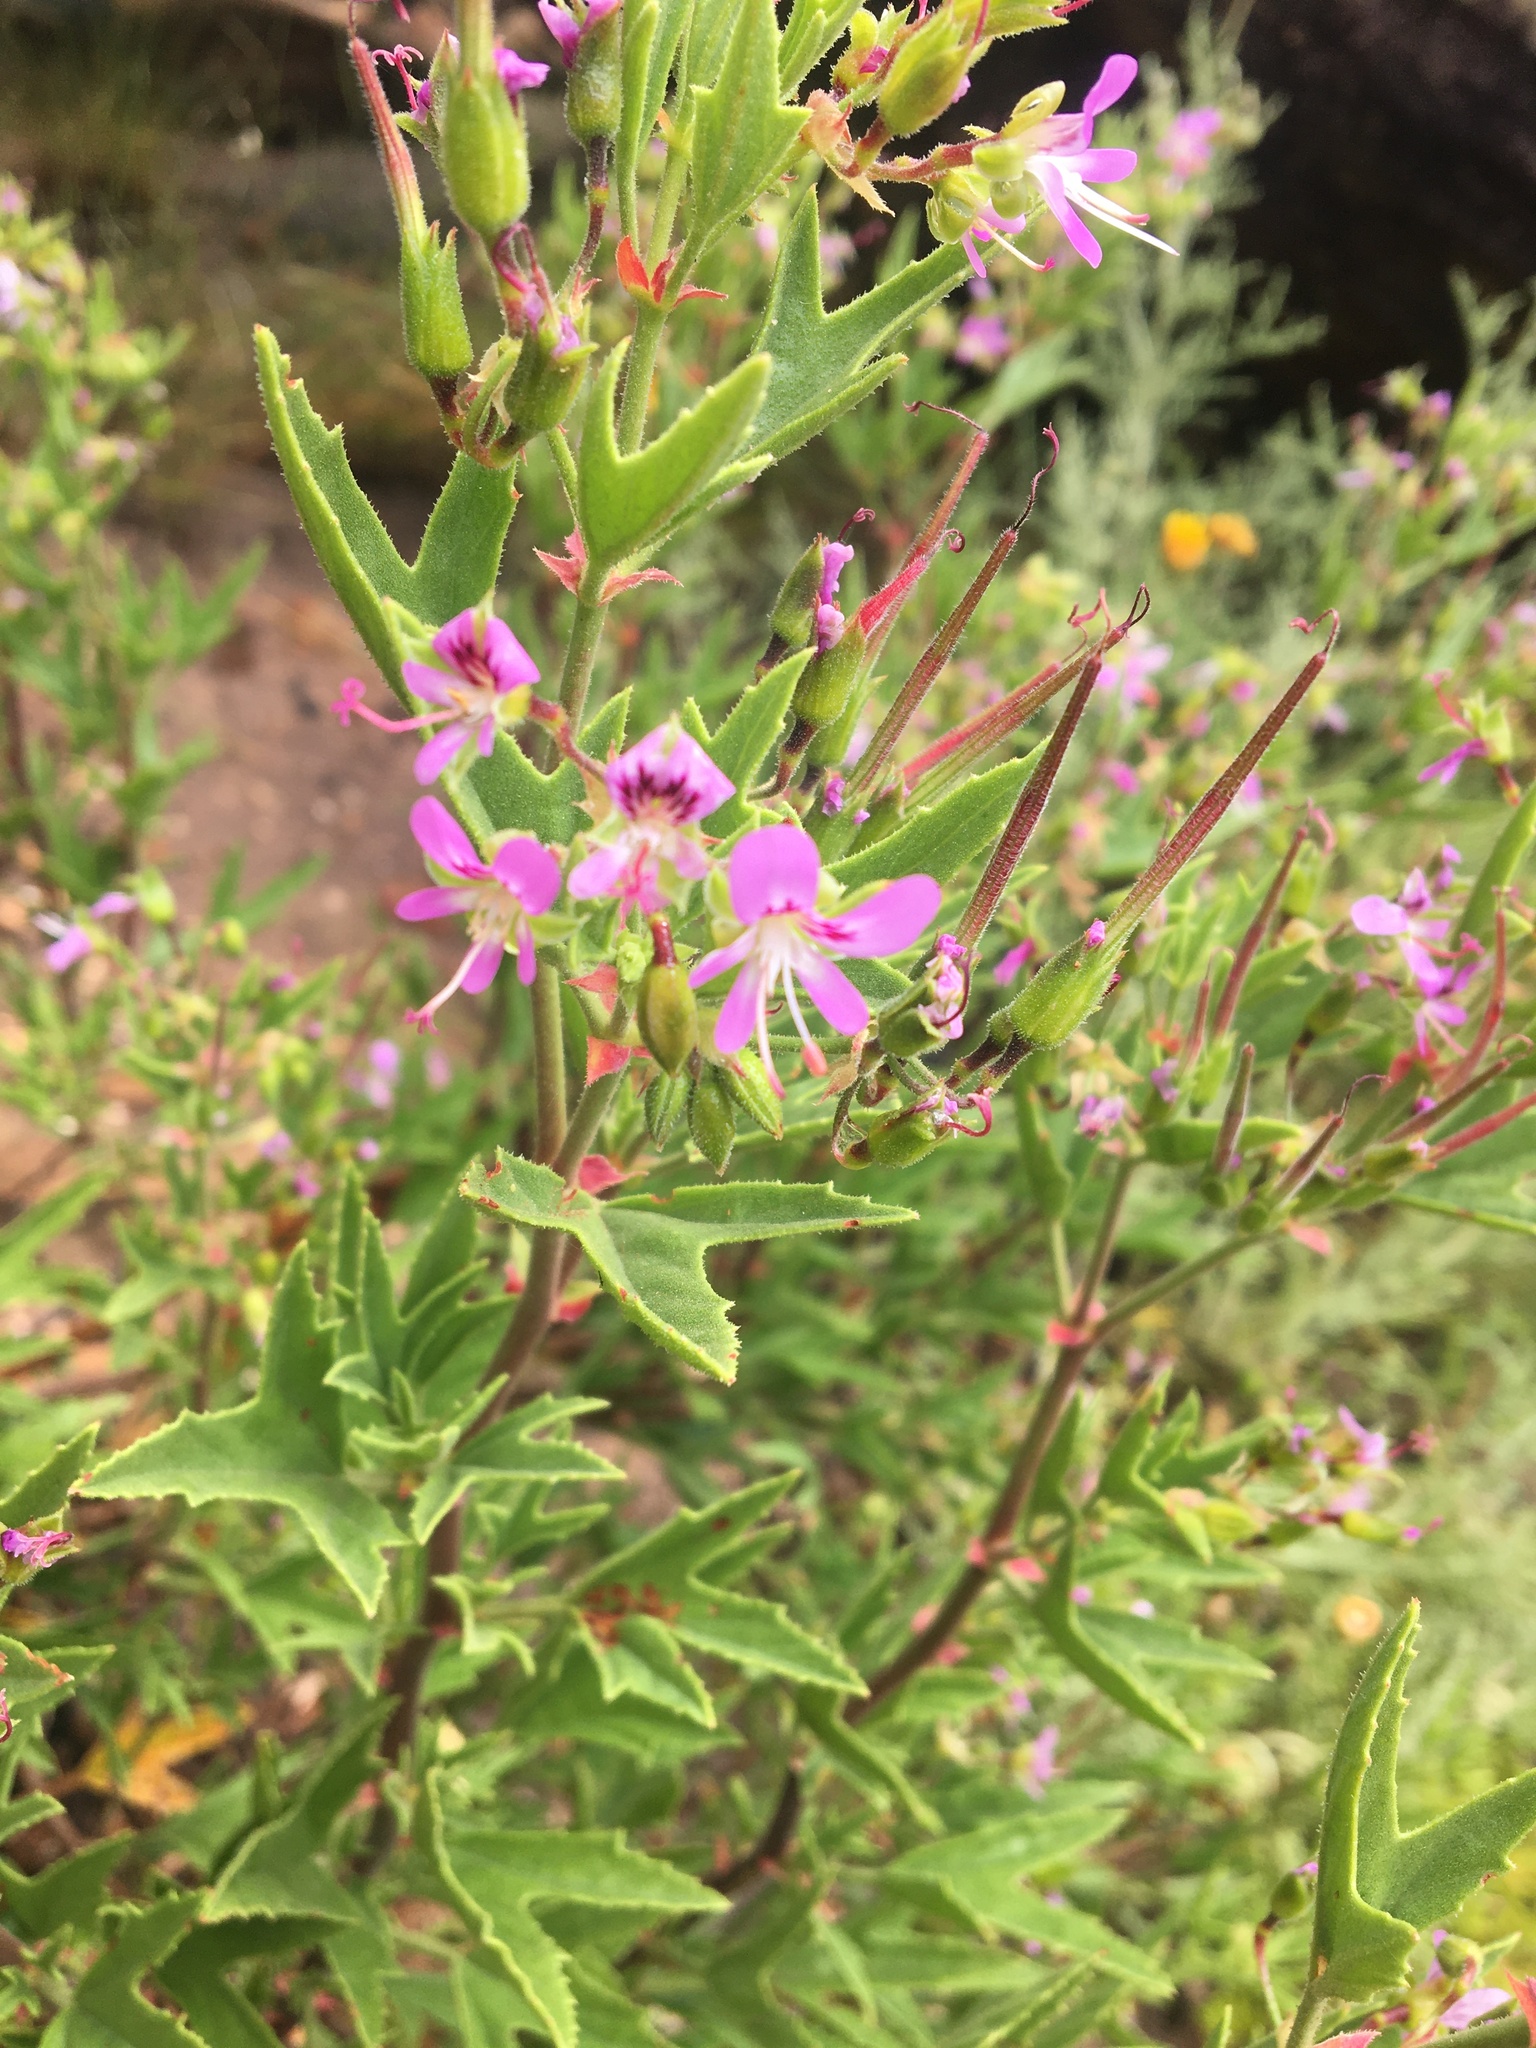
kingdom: Plantae
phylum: Tracheophyta
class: Magnoliopsida
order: Geraniales
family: Geraniaceae
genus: Pelargonium
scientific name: Pelargonium scabrum
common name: Apricot geranium
